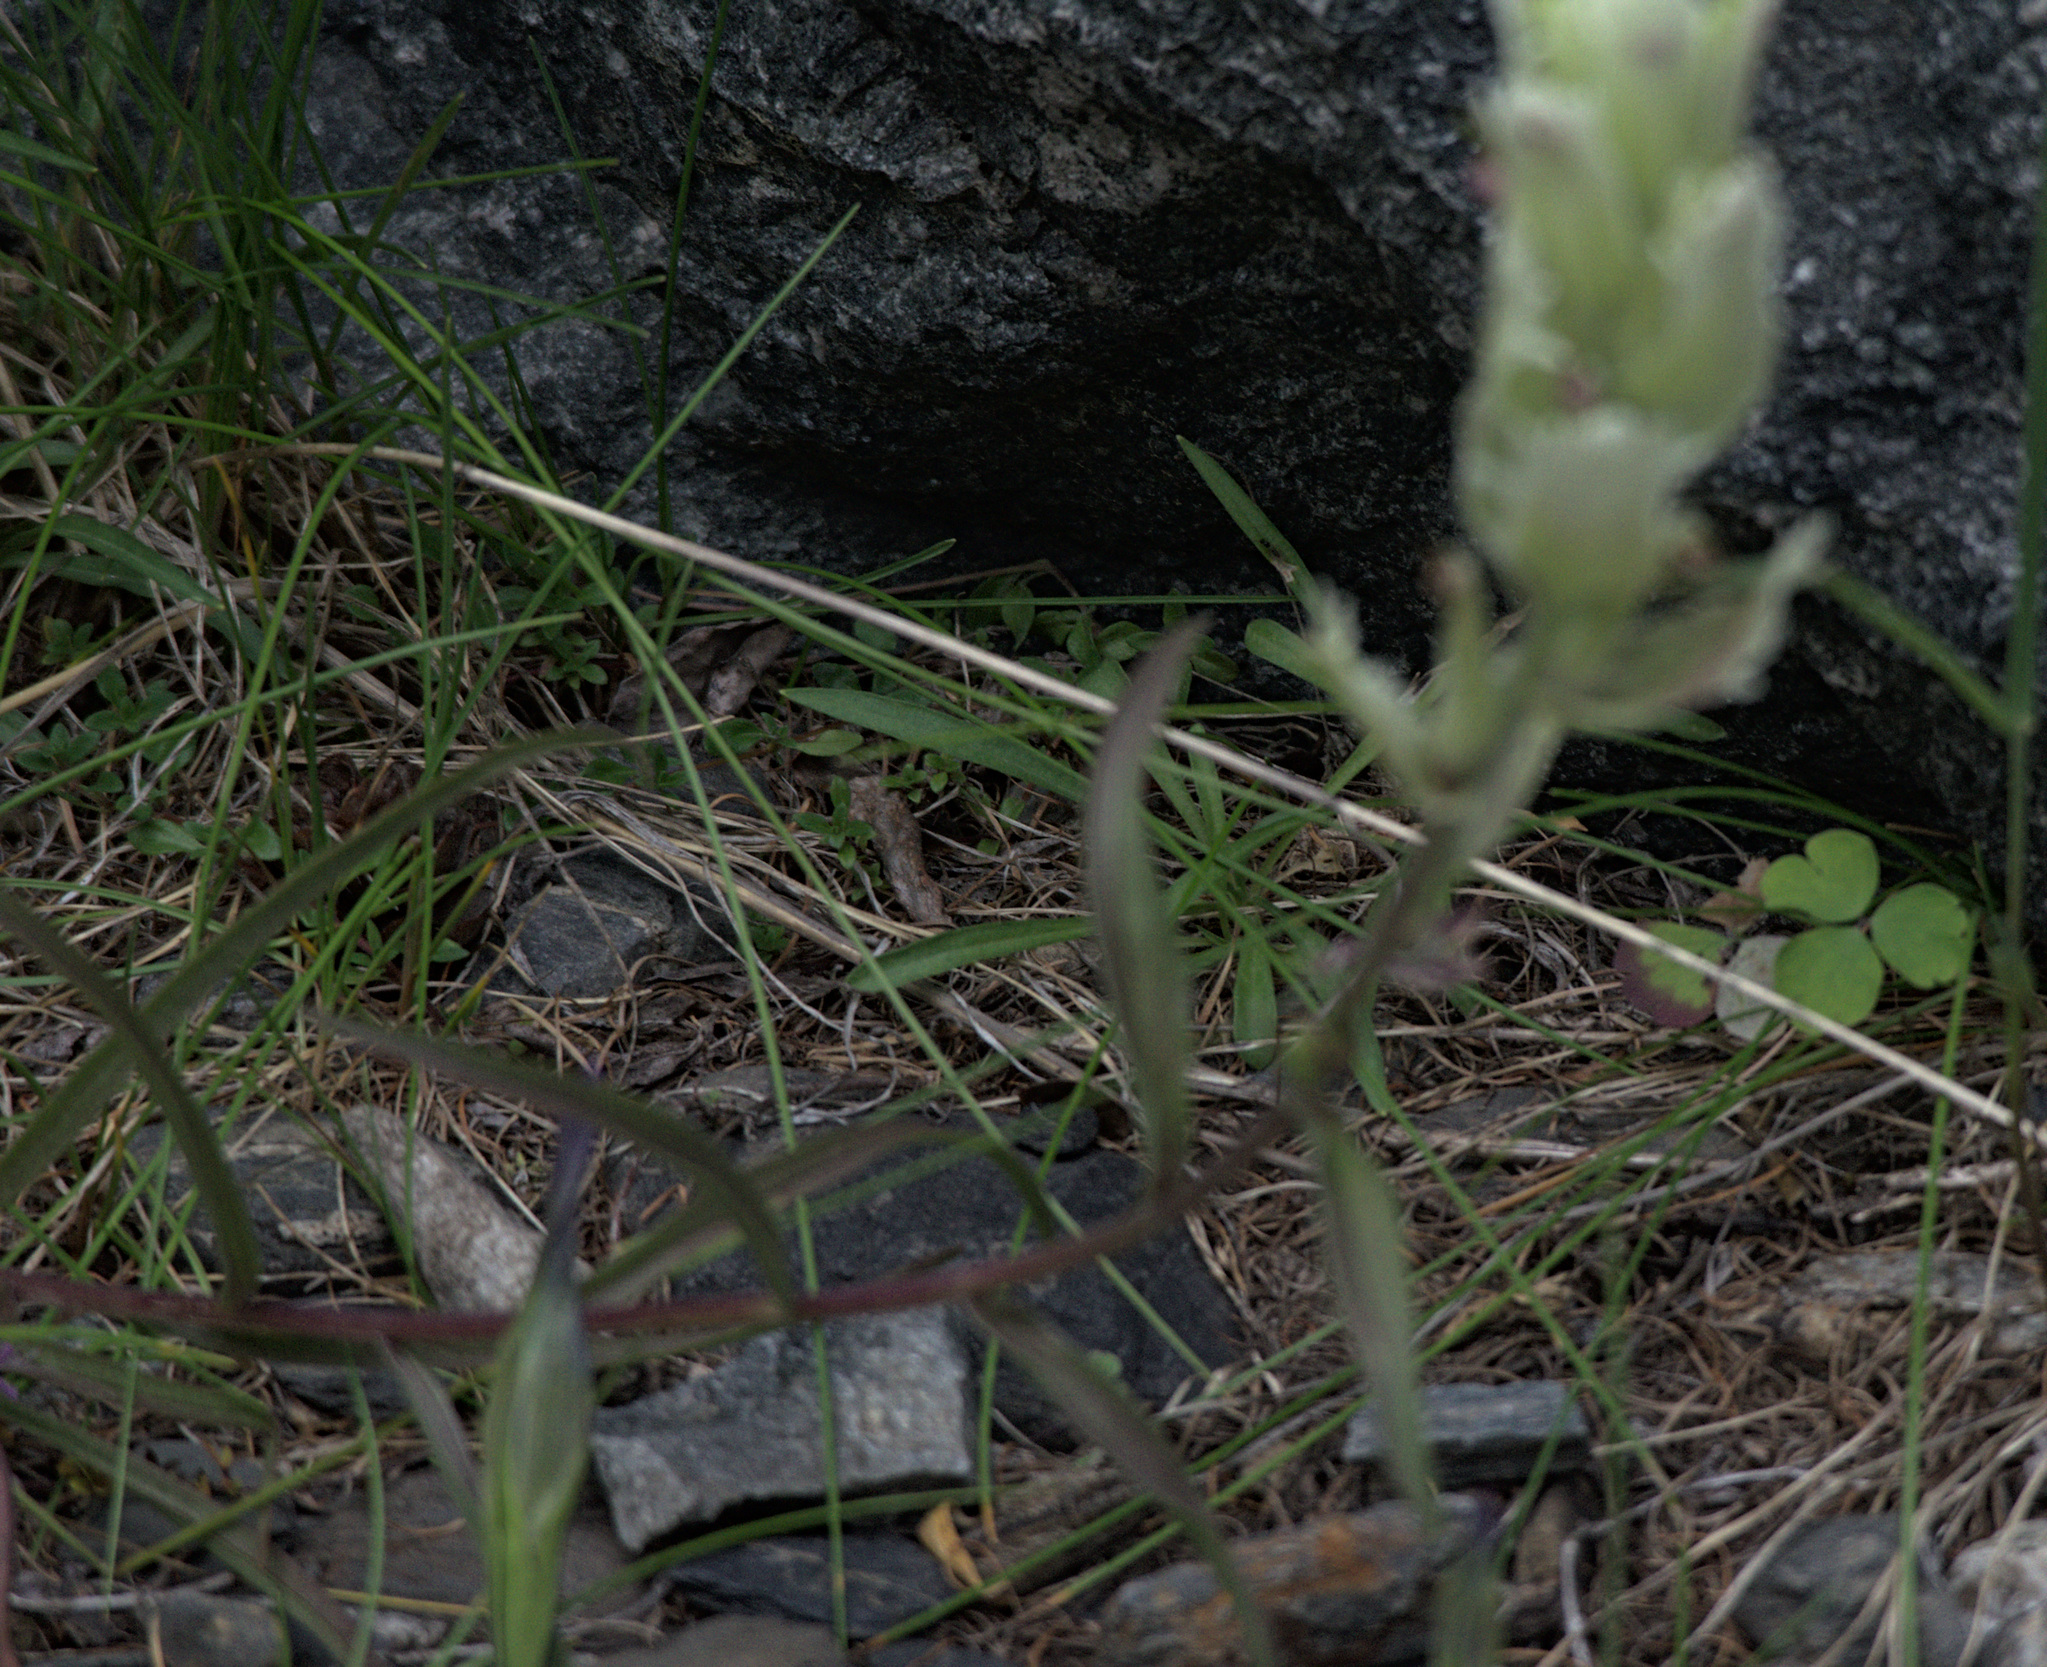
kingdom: Plantae
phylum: Tracheophyta
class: Magnoliopsida
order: Lamiales
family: Orobanchaceae
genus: Castilleja
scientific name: Castilleja pallida
